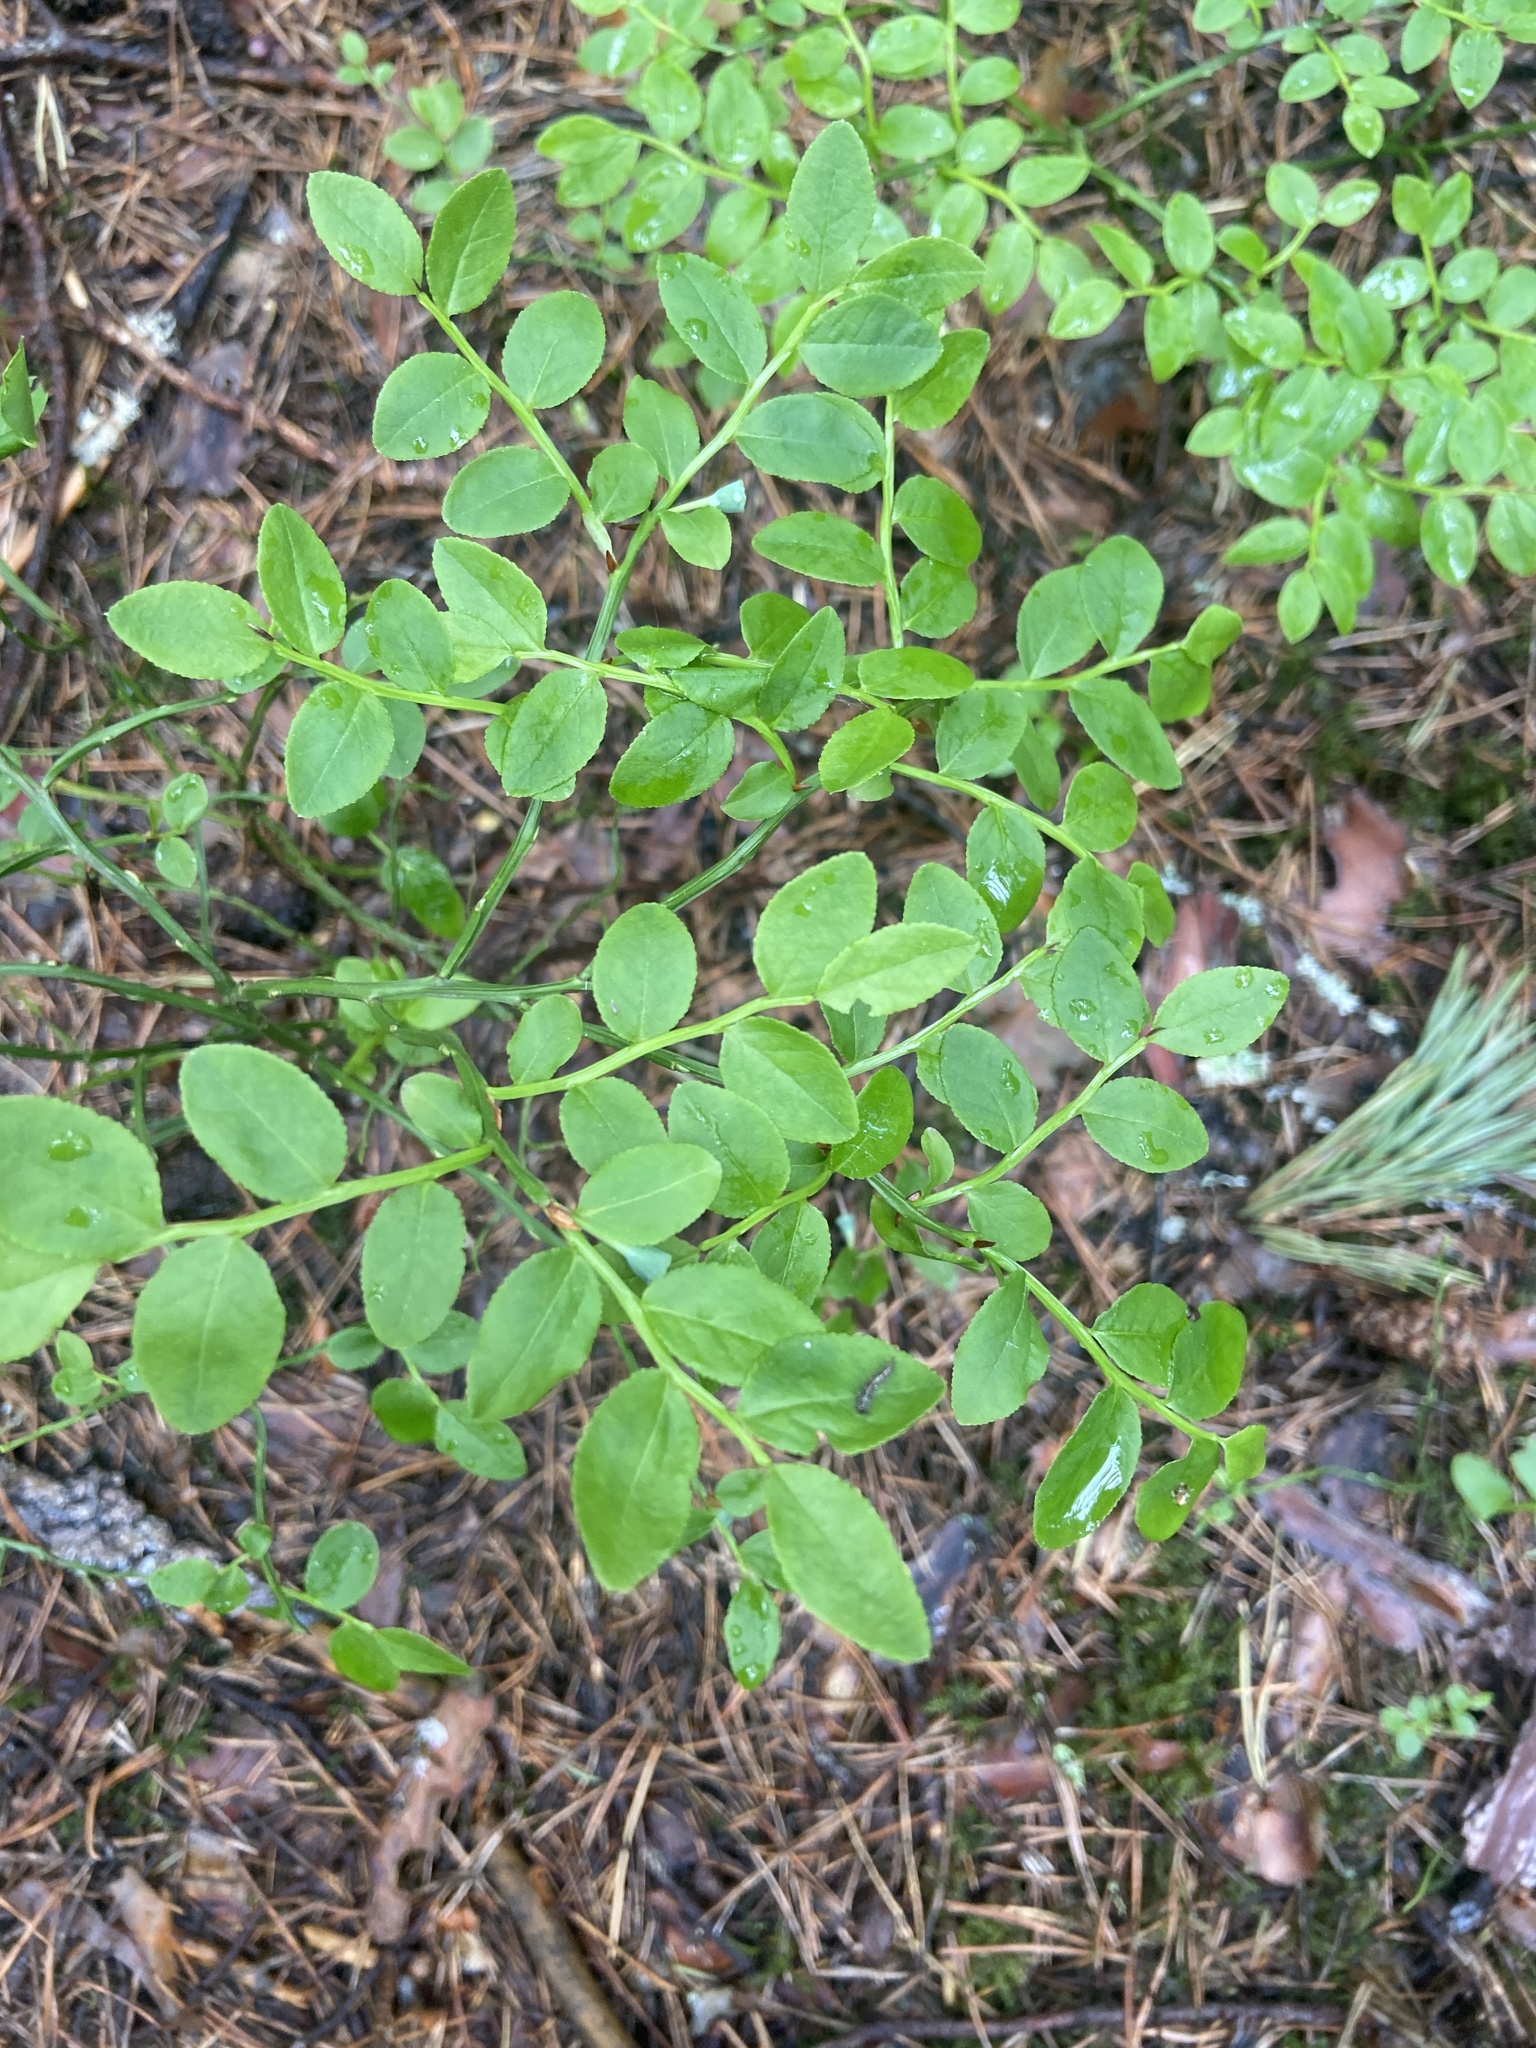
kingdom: Plantae
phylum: Tracheophyta
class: Magnoliopsida
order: Ericales
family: Ericaceae
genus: Vaccinium
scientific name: Vaccinium myrtillus
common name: Bilberry
